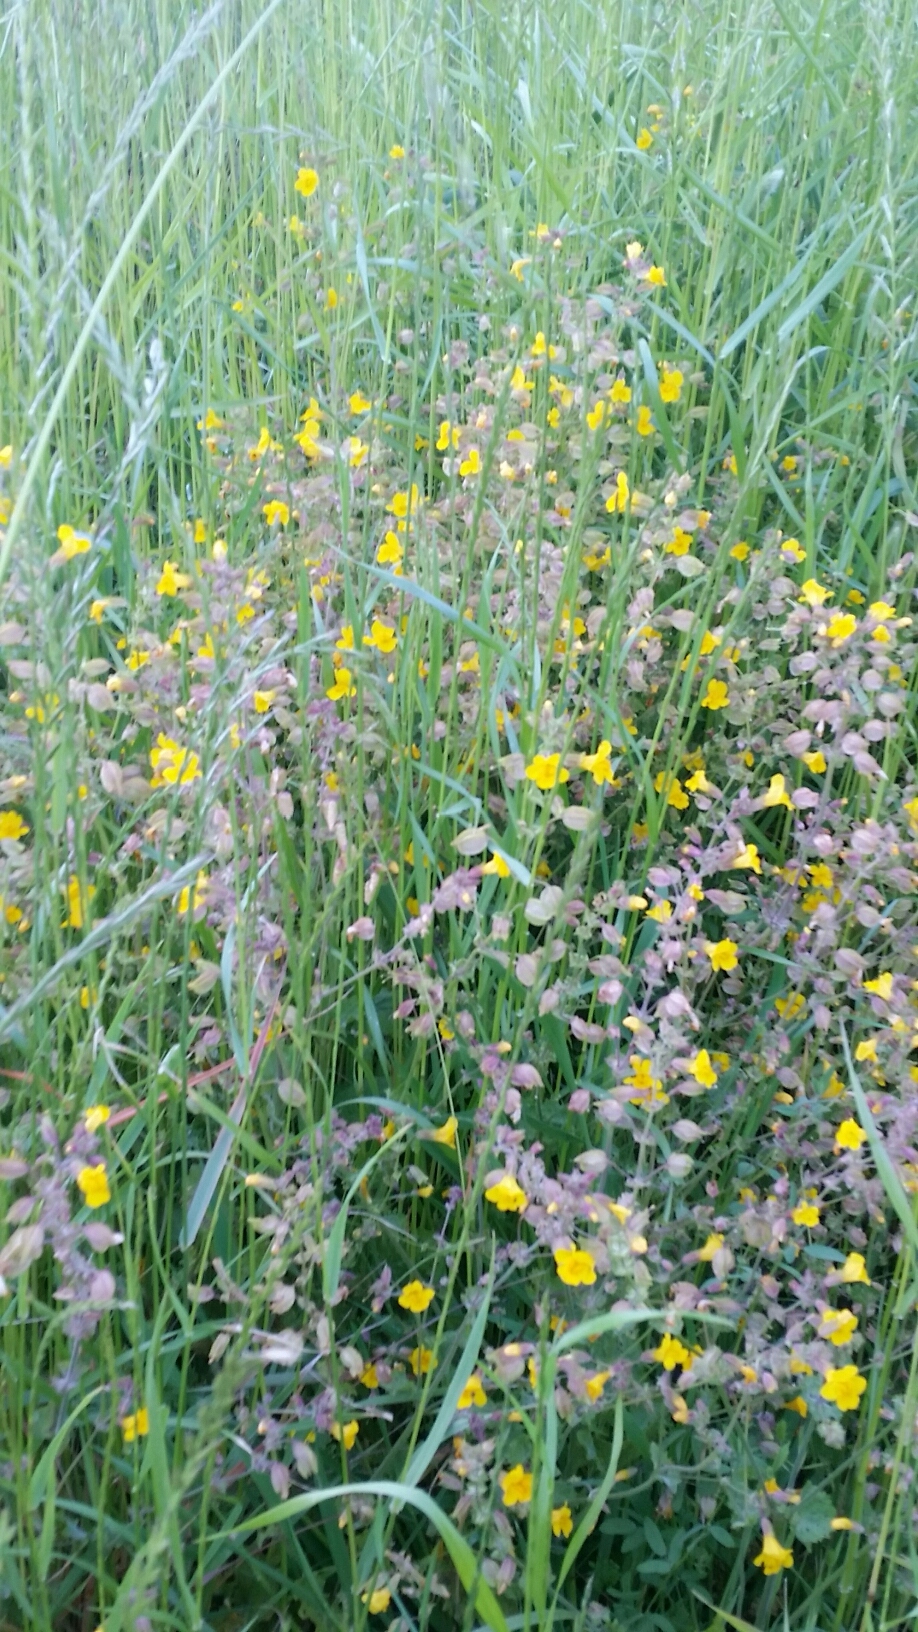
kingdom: Plantae
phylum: Tracheophyta
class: Magnoliopsida
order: Lamiales
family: Phrymaceae
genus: Erythranthe
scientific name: Erythranthe guttata
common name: Monkeyflower
